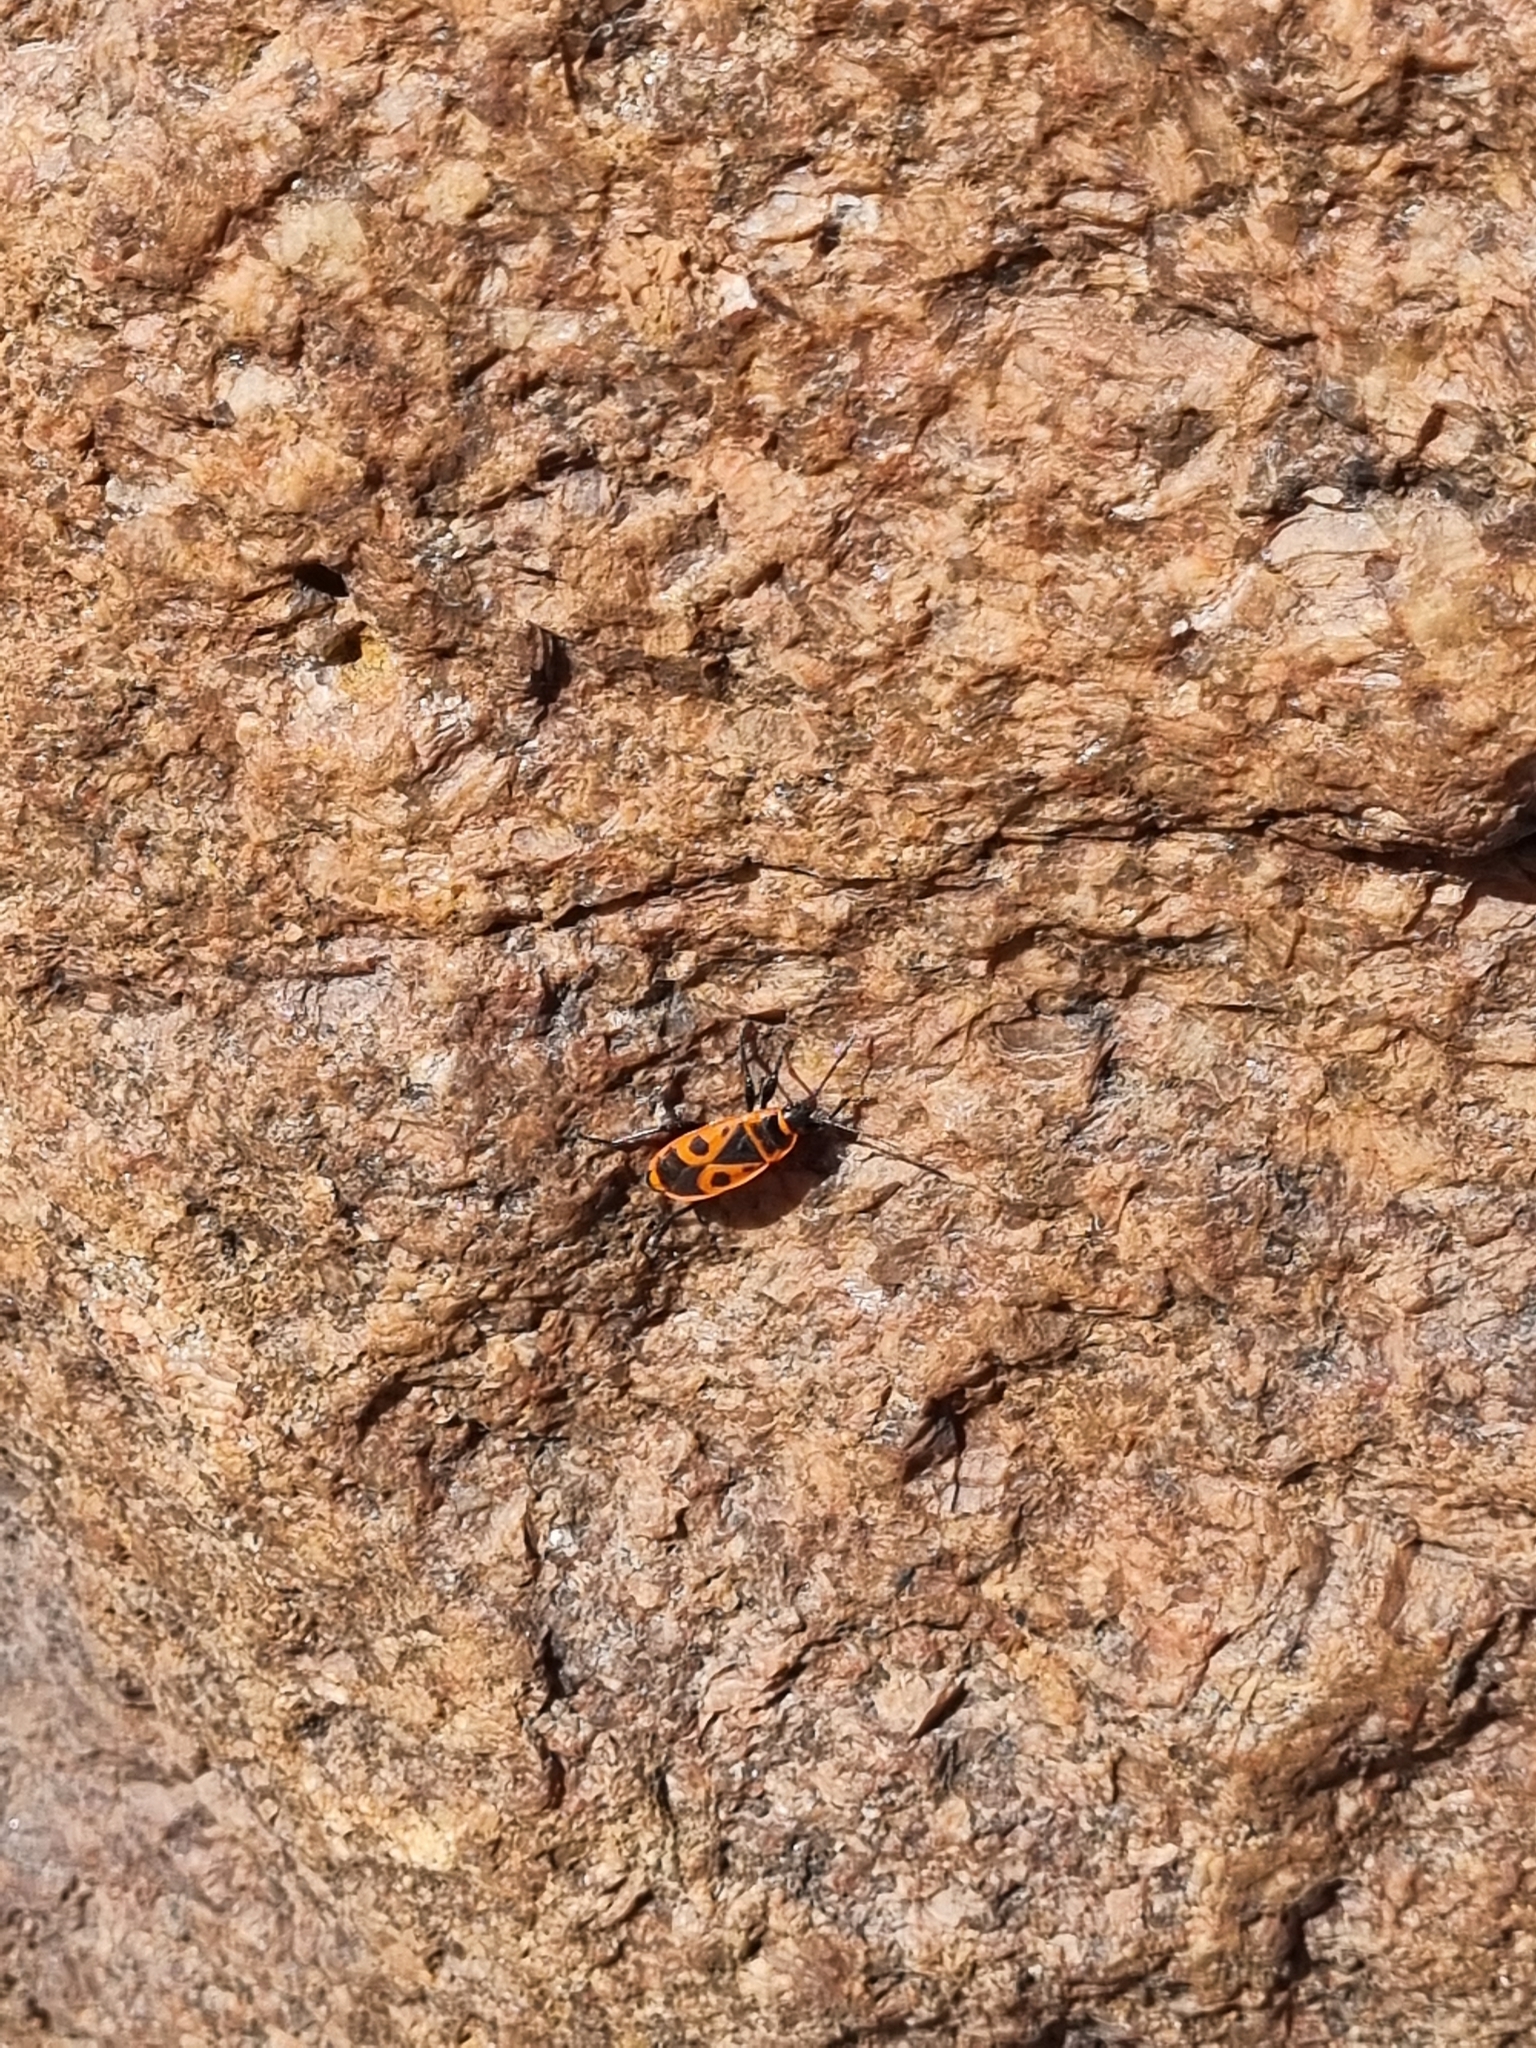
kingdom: Animalia
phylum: Arthropoda
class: Insecta
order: Hemiptera
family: Pyrrhocoridae
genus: Pyrrhocoris
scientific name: Pyrrhocoris apterus
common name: Firebug
